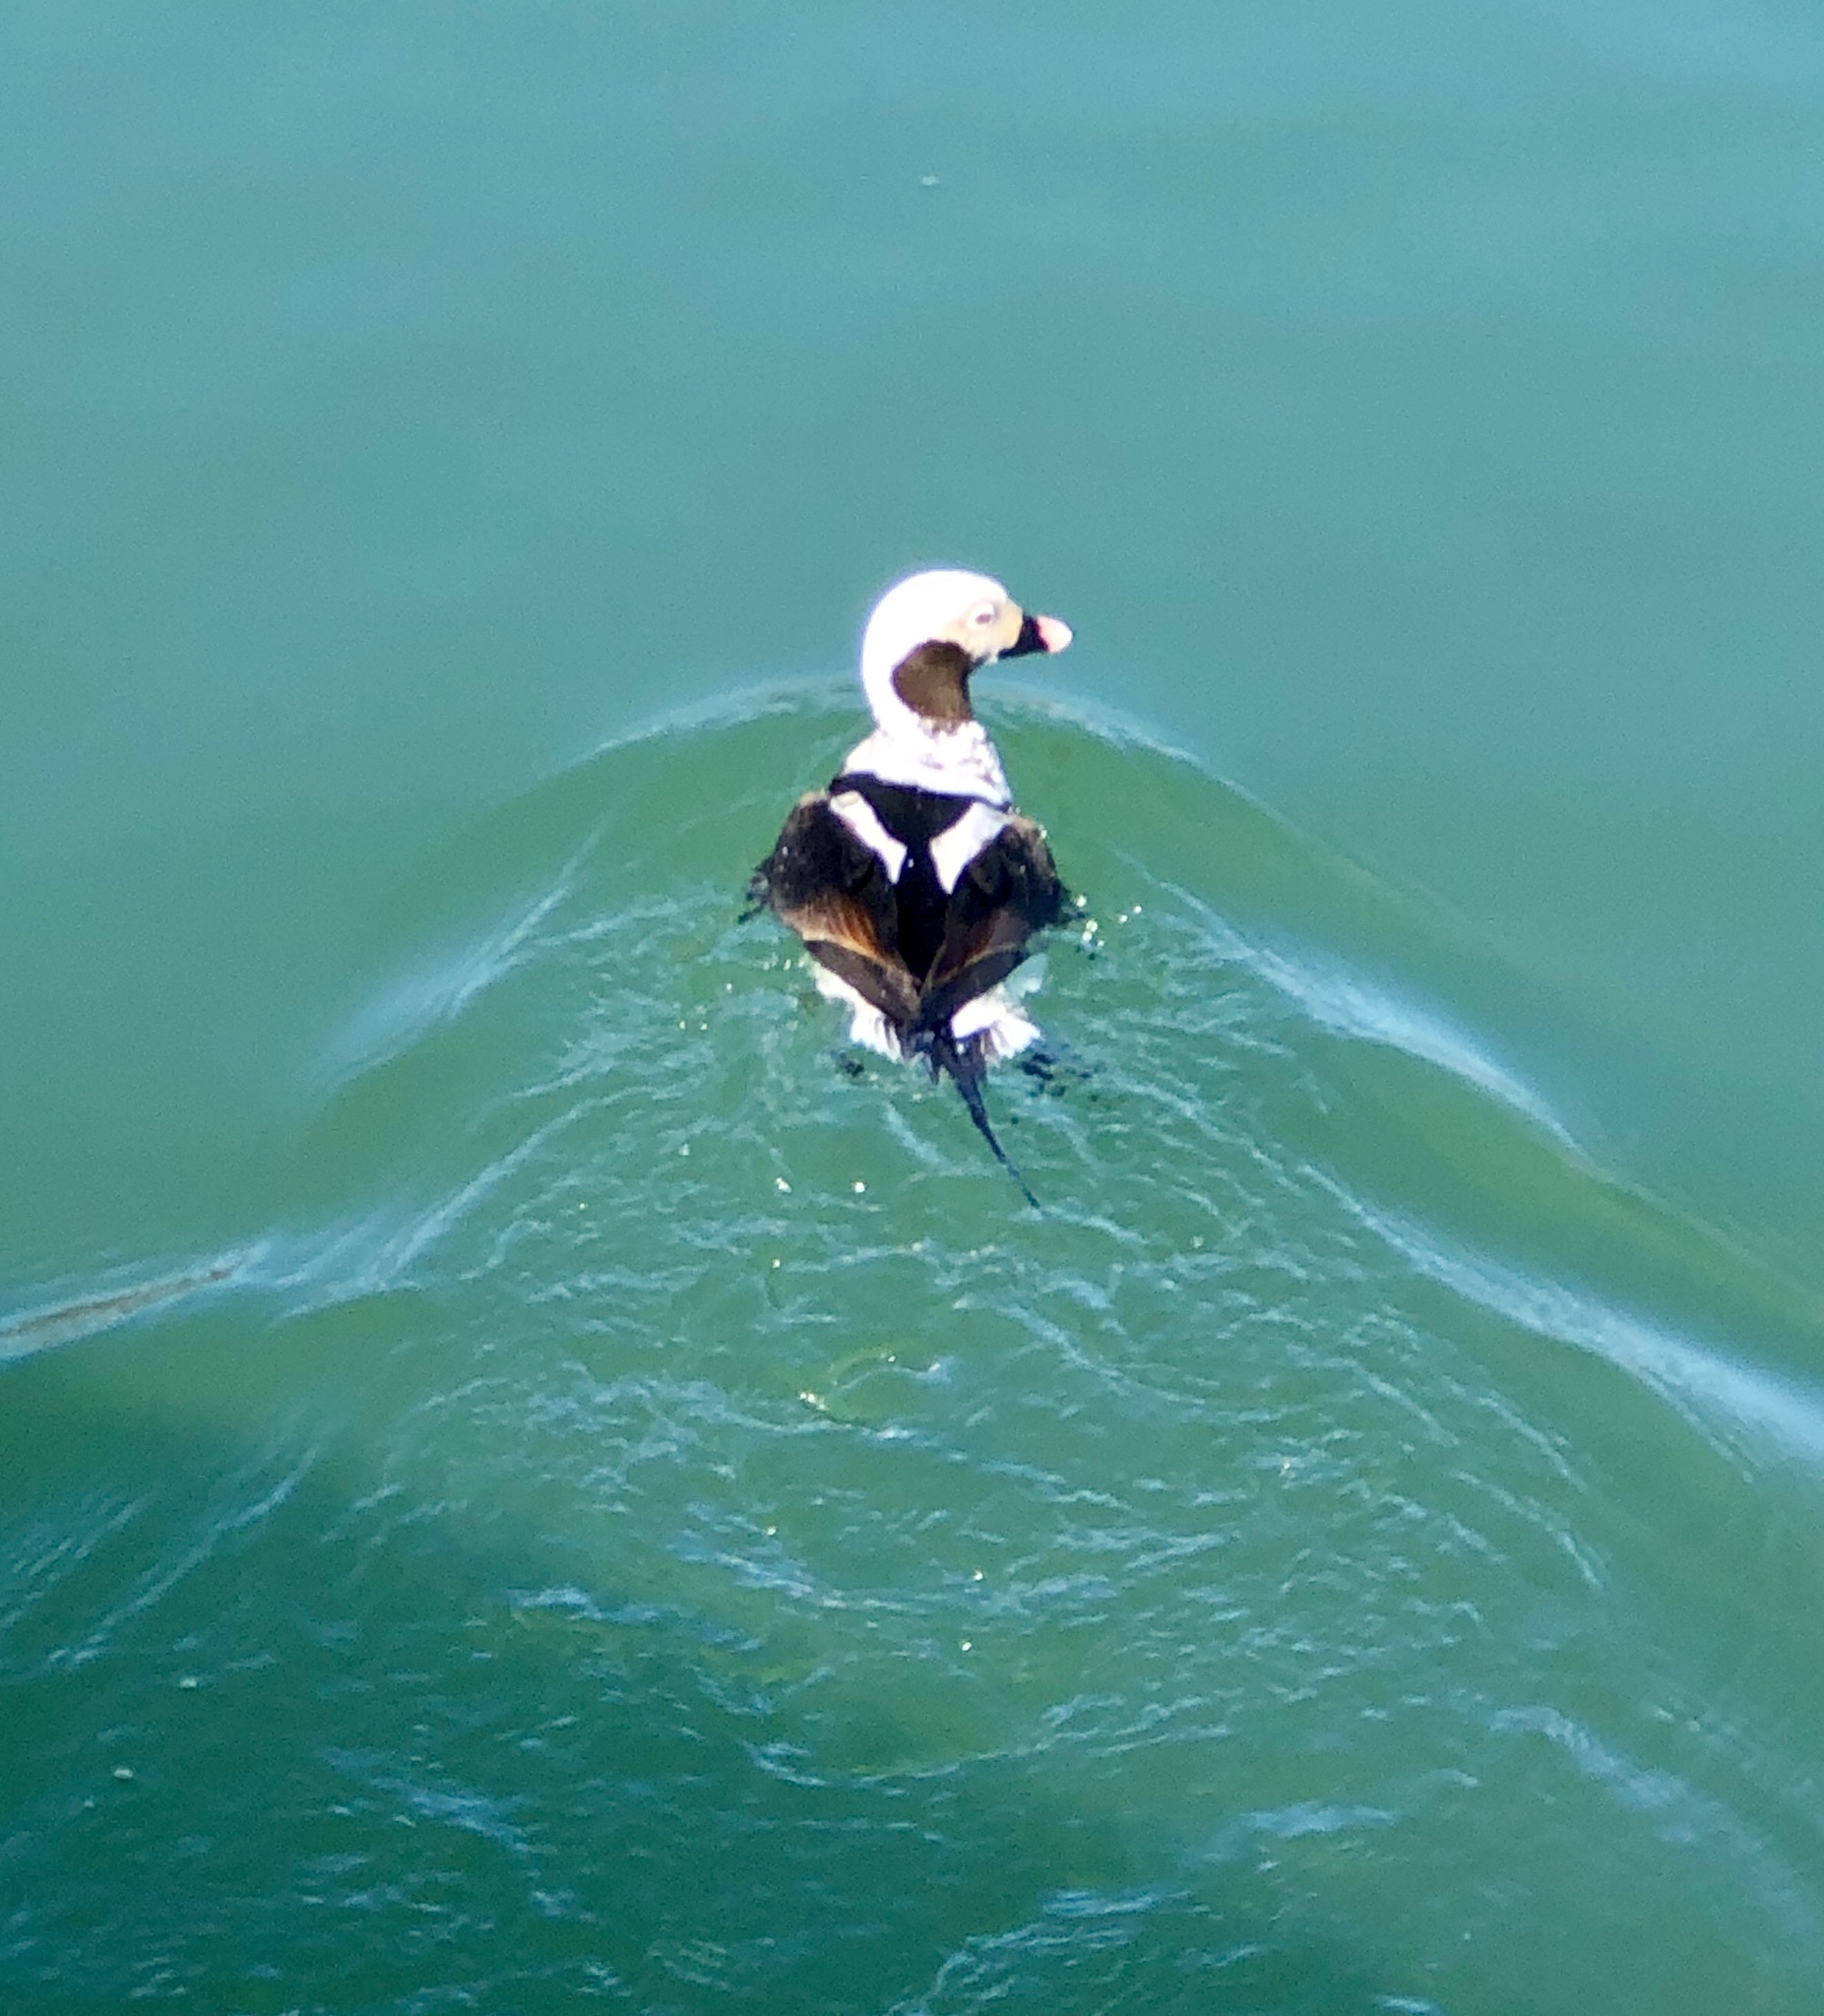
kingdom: Animalia
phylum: Chordata
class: Aves
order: Anseriformes
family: Anatidae
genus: Clangula
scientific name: Clangula hyemalis
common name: Long-tailed duck
